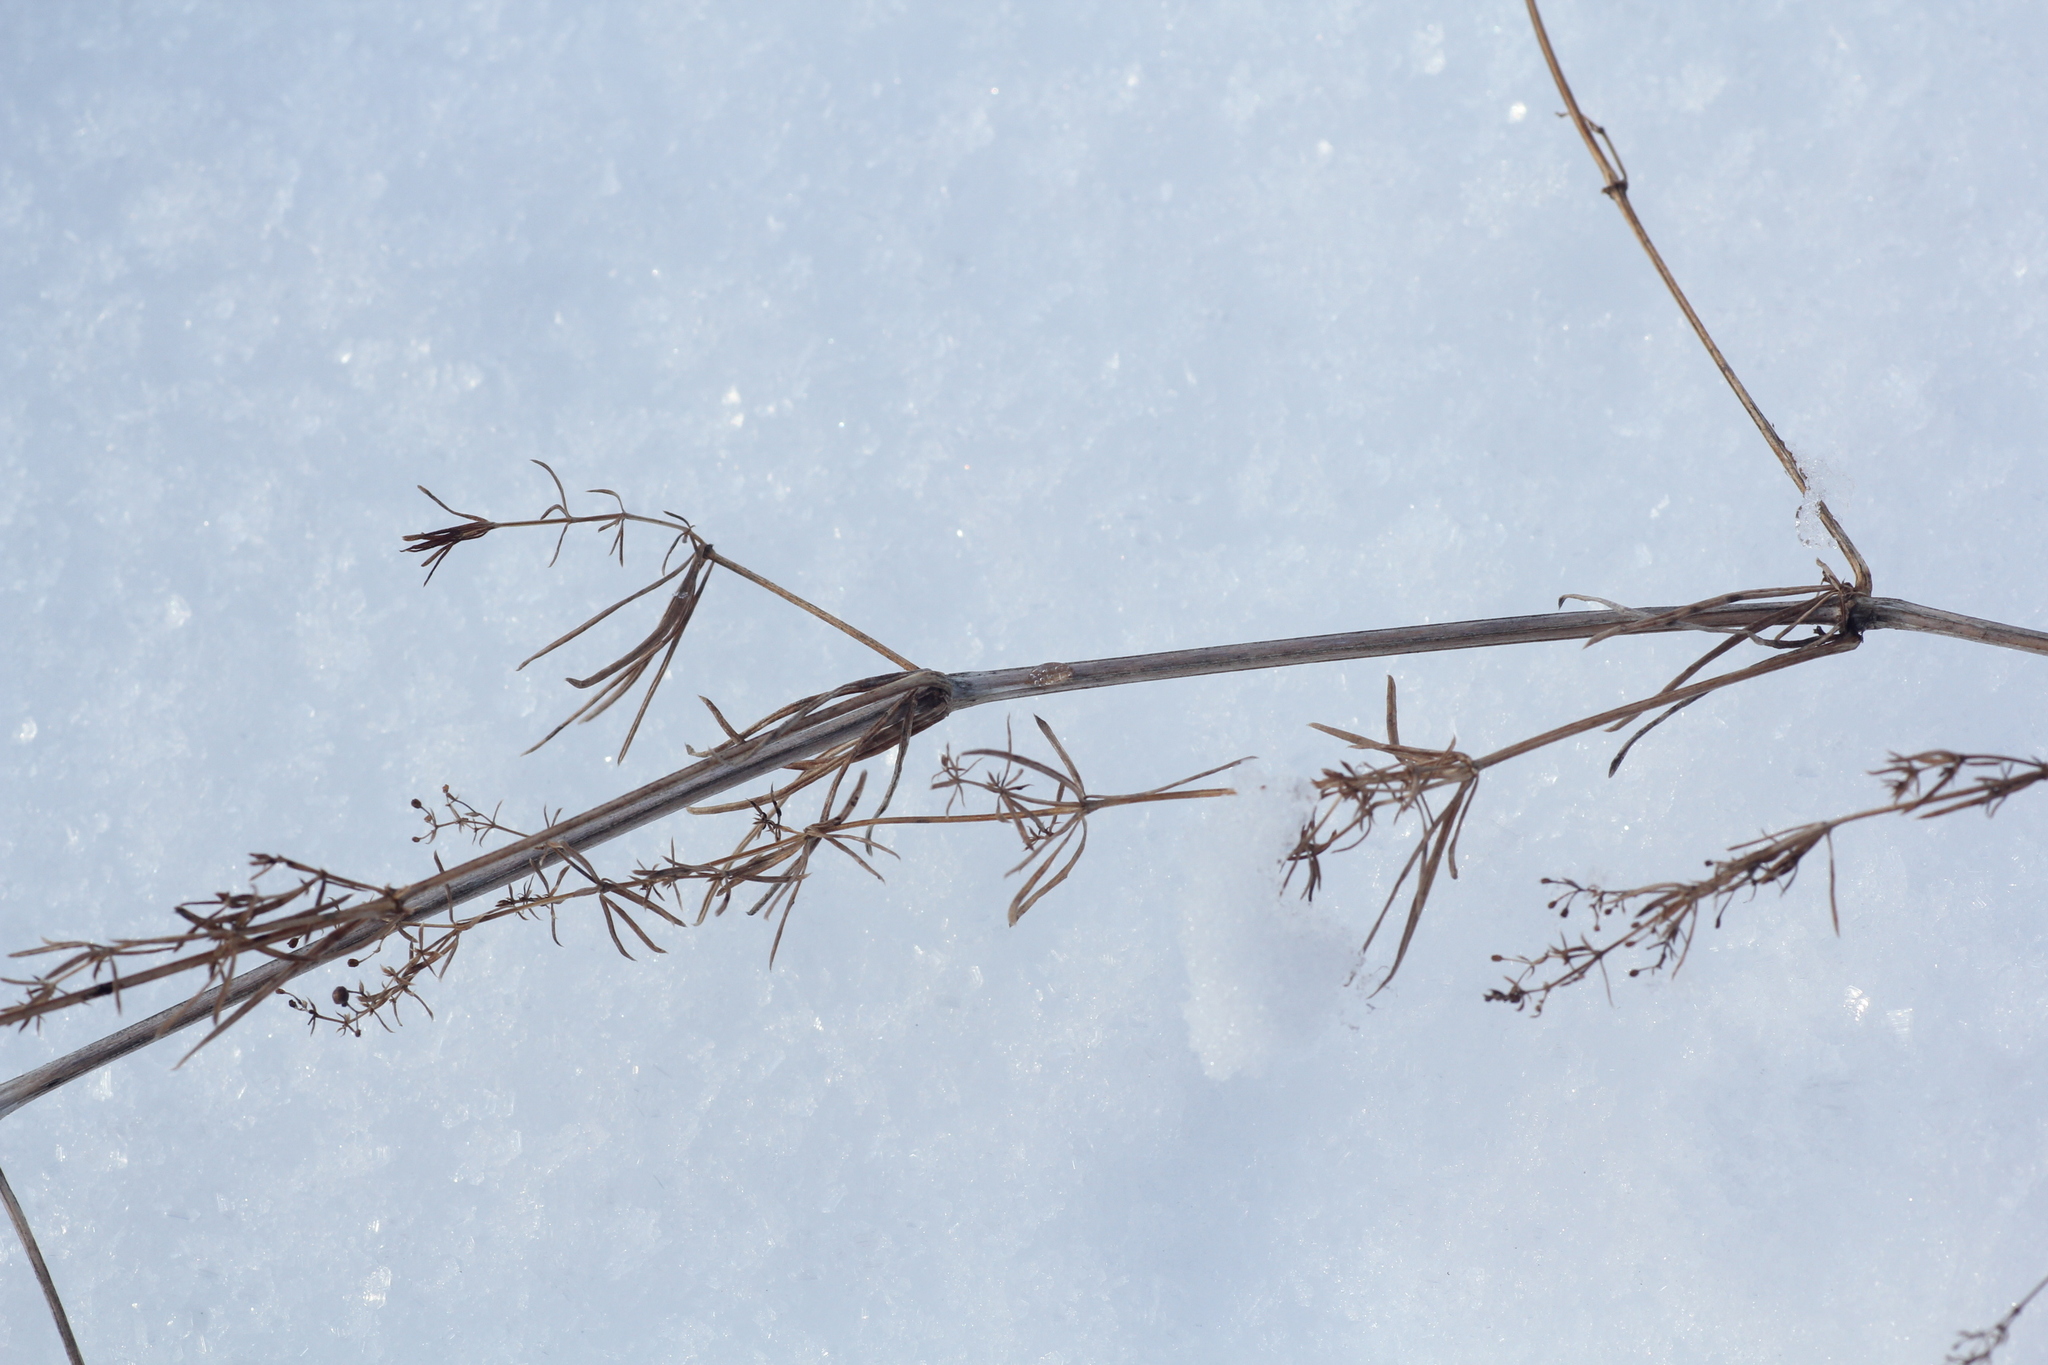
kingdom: Plantae
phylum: Tracheophyta
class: Magnoliopsida
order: Gentianales
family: Rubiaceae
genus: Galium
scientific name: Galium verum
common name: Lady's bedstraw
